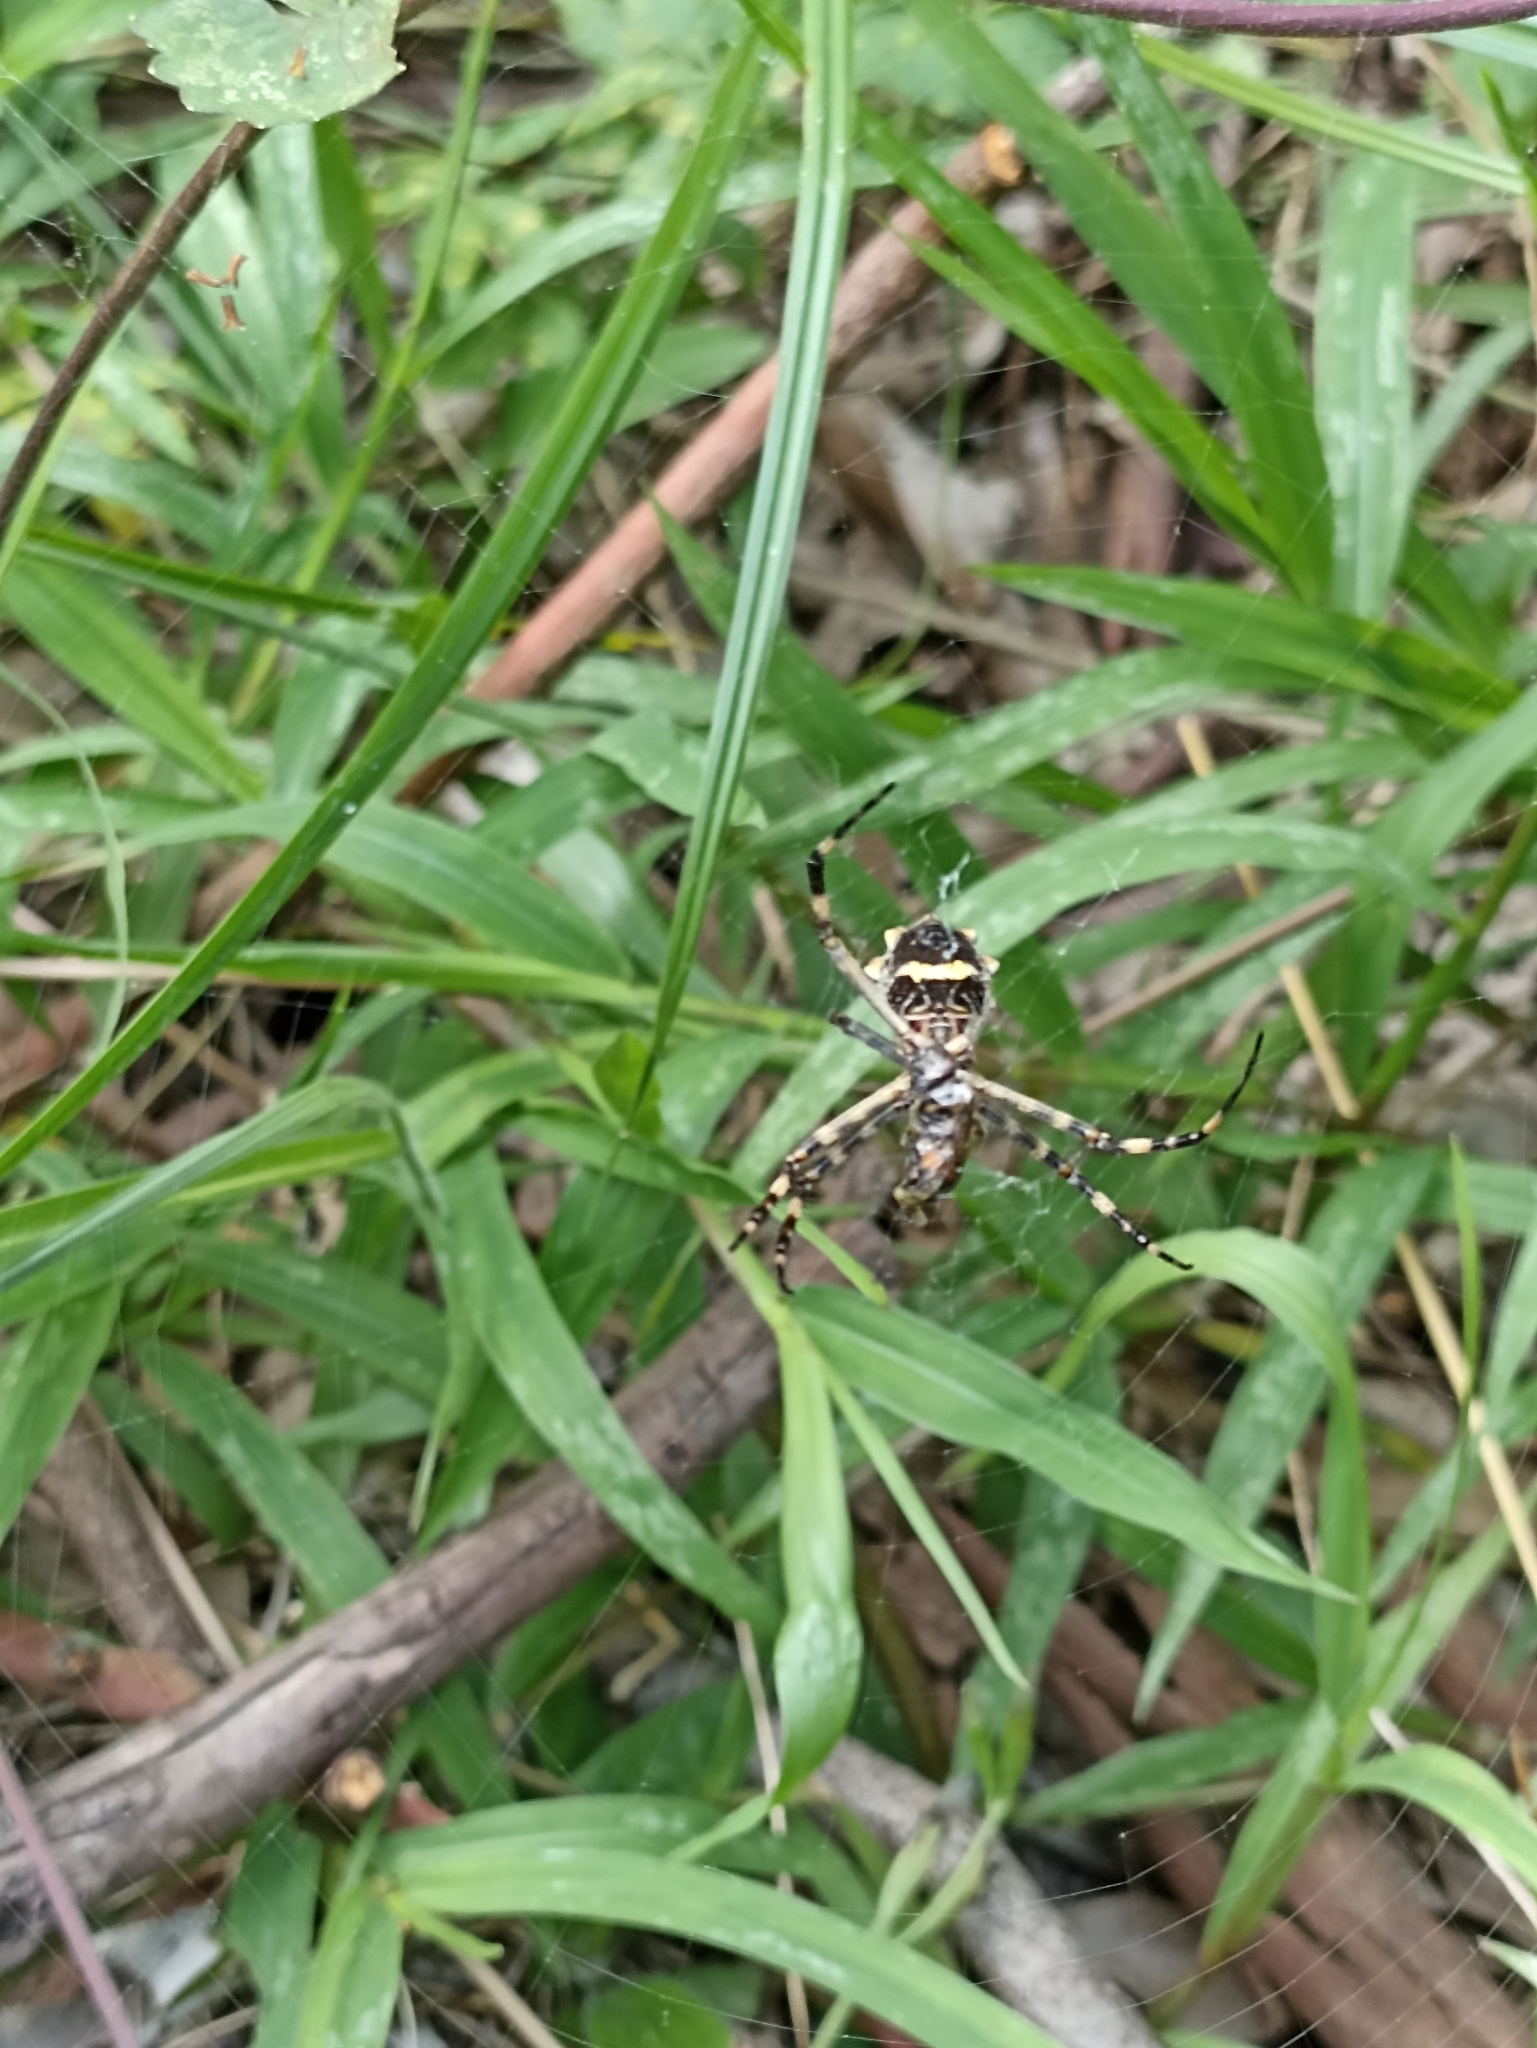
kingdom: Animalia
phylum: Arthropoda
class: Arachnida
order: Araneae
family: Araneidae
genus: Argiope
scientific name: Argiope argentata
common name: Orb weavers
